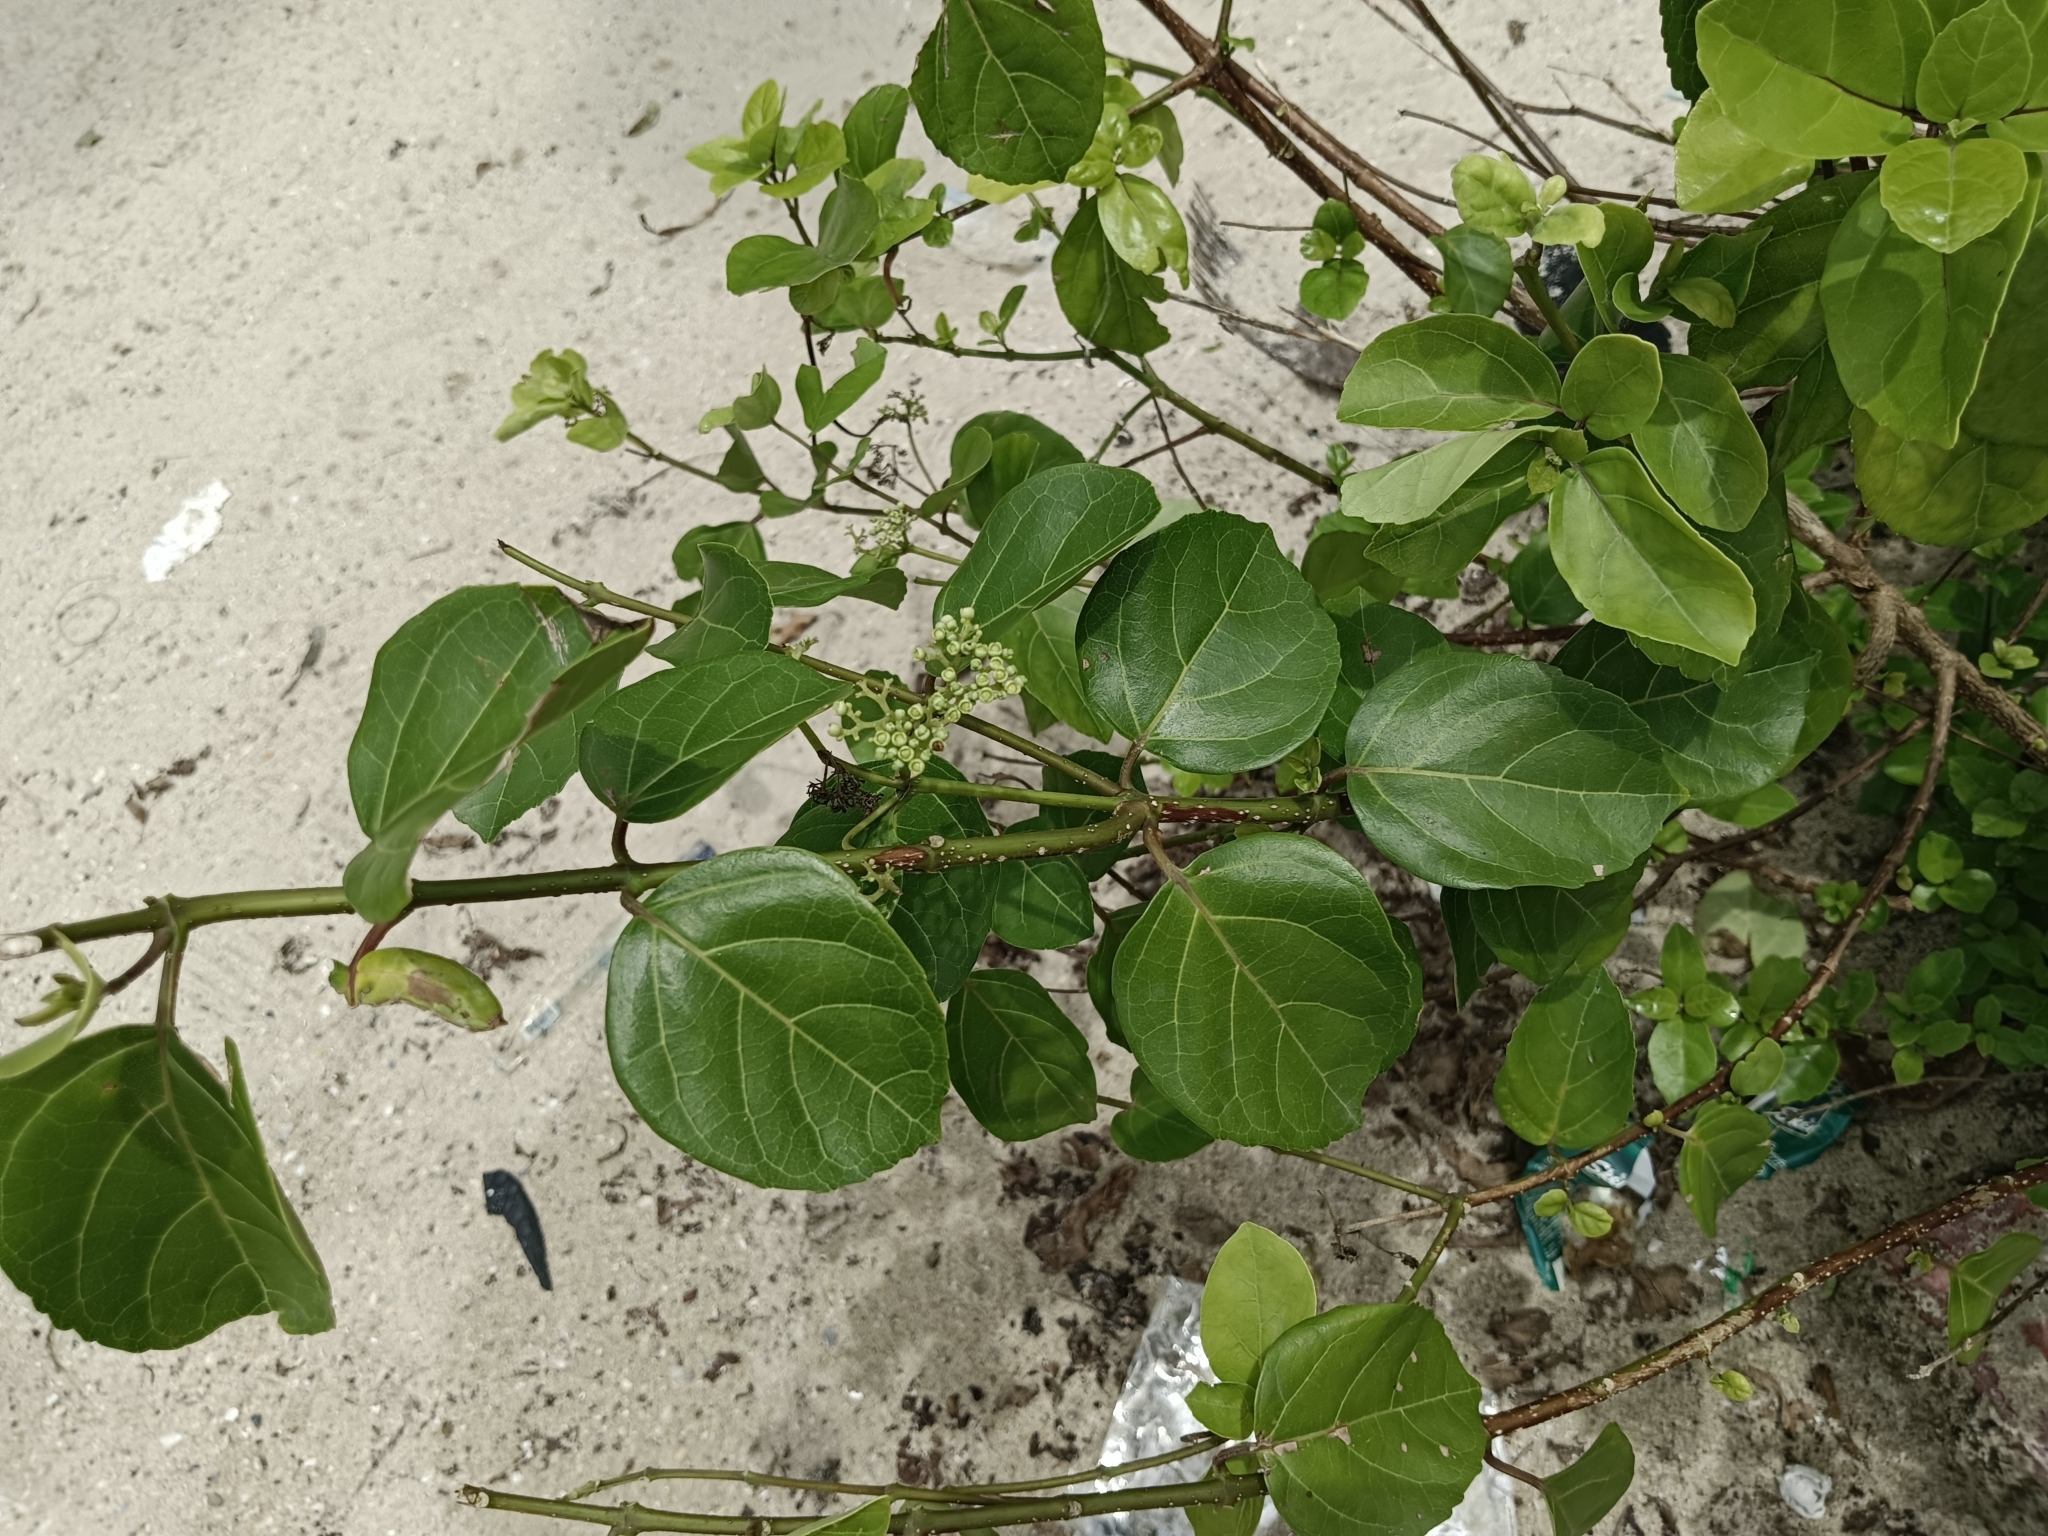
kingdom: Plantae
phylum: Tracheophyta
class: Magnoliopsida
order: Lamiales
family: Lamiaceae
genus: Premna
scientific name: Premna serratifolia
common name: Bastard guelder
